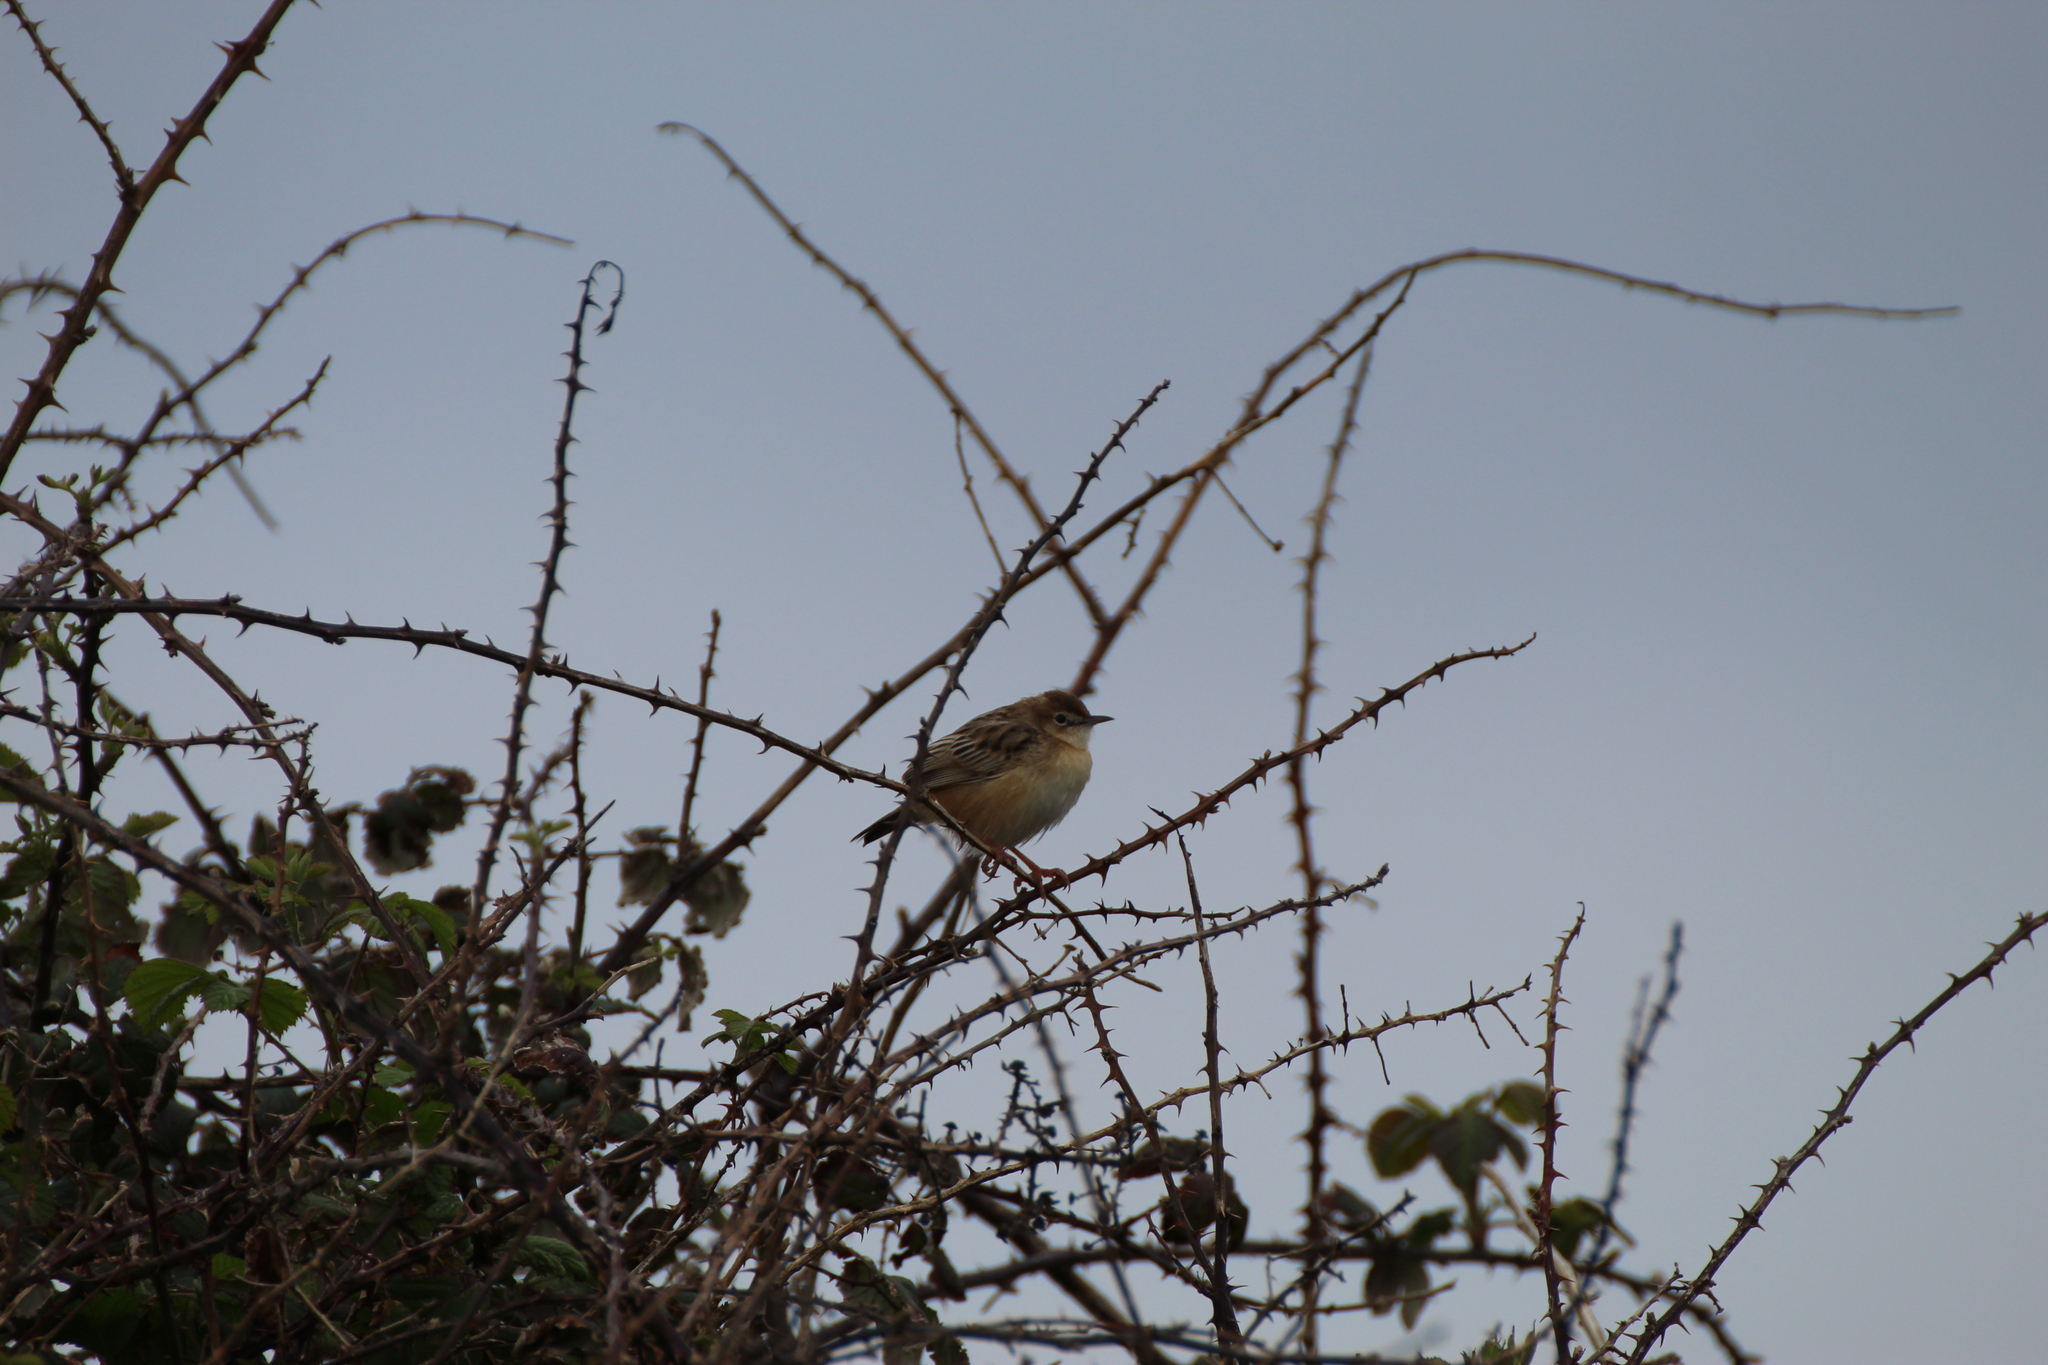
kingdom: Animalia
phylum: Chordata
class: Aves
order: Passeriformes
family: Cisticolidae
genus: Cisticola
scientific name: Cisticola juncidis
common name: Zitting cisticola
